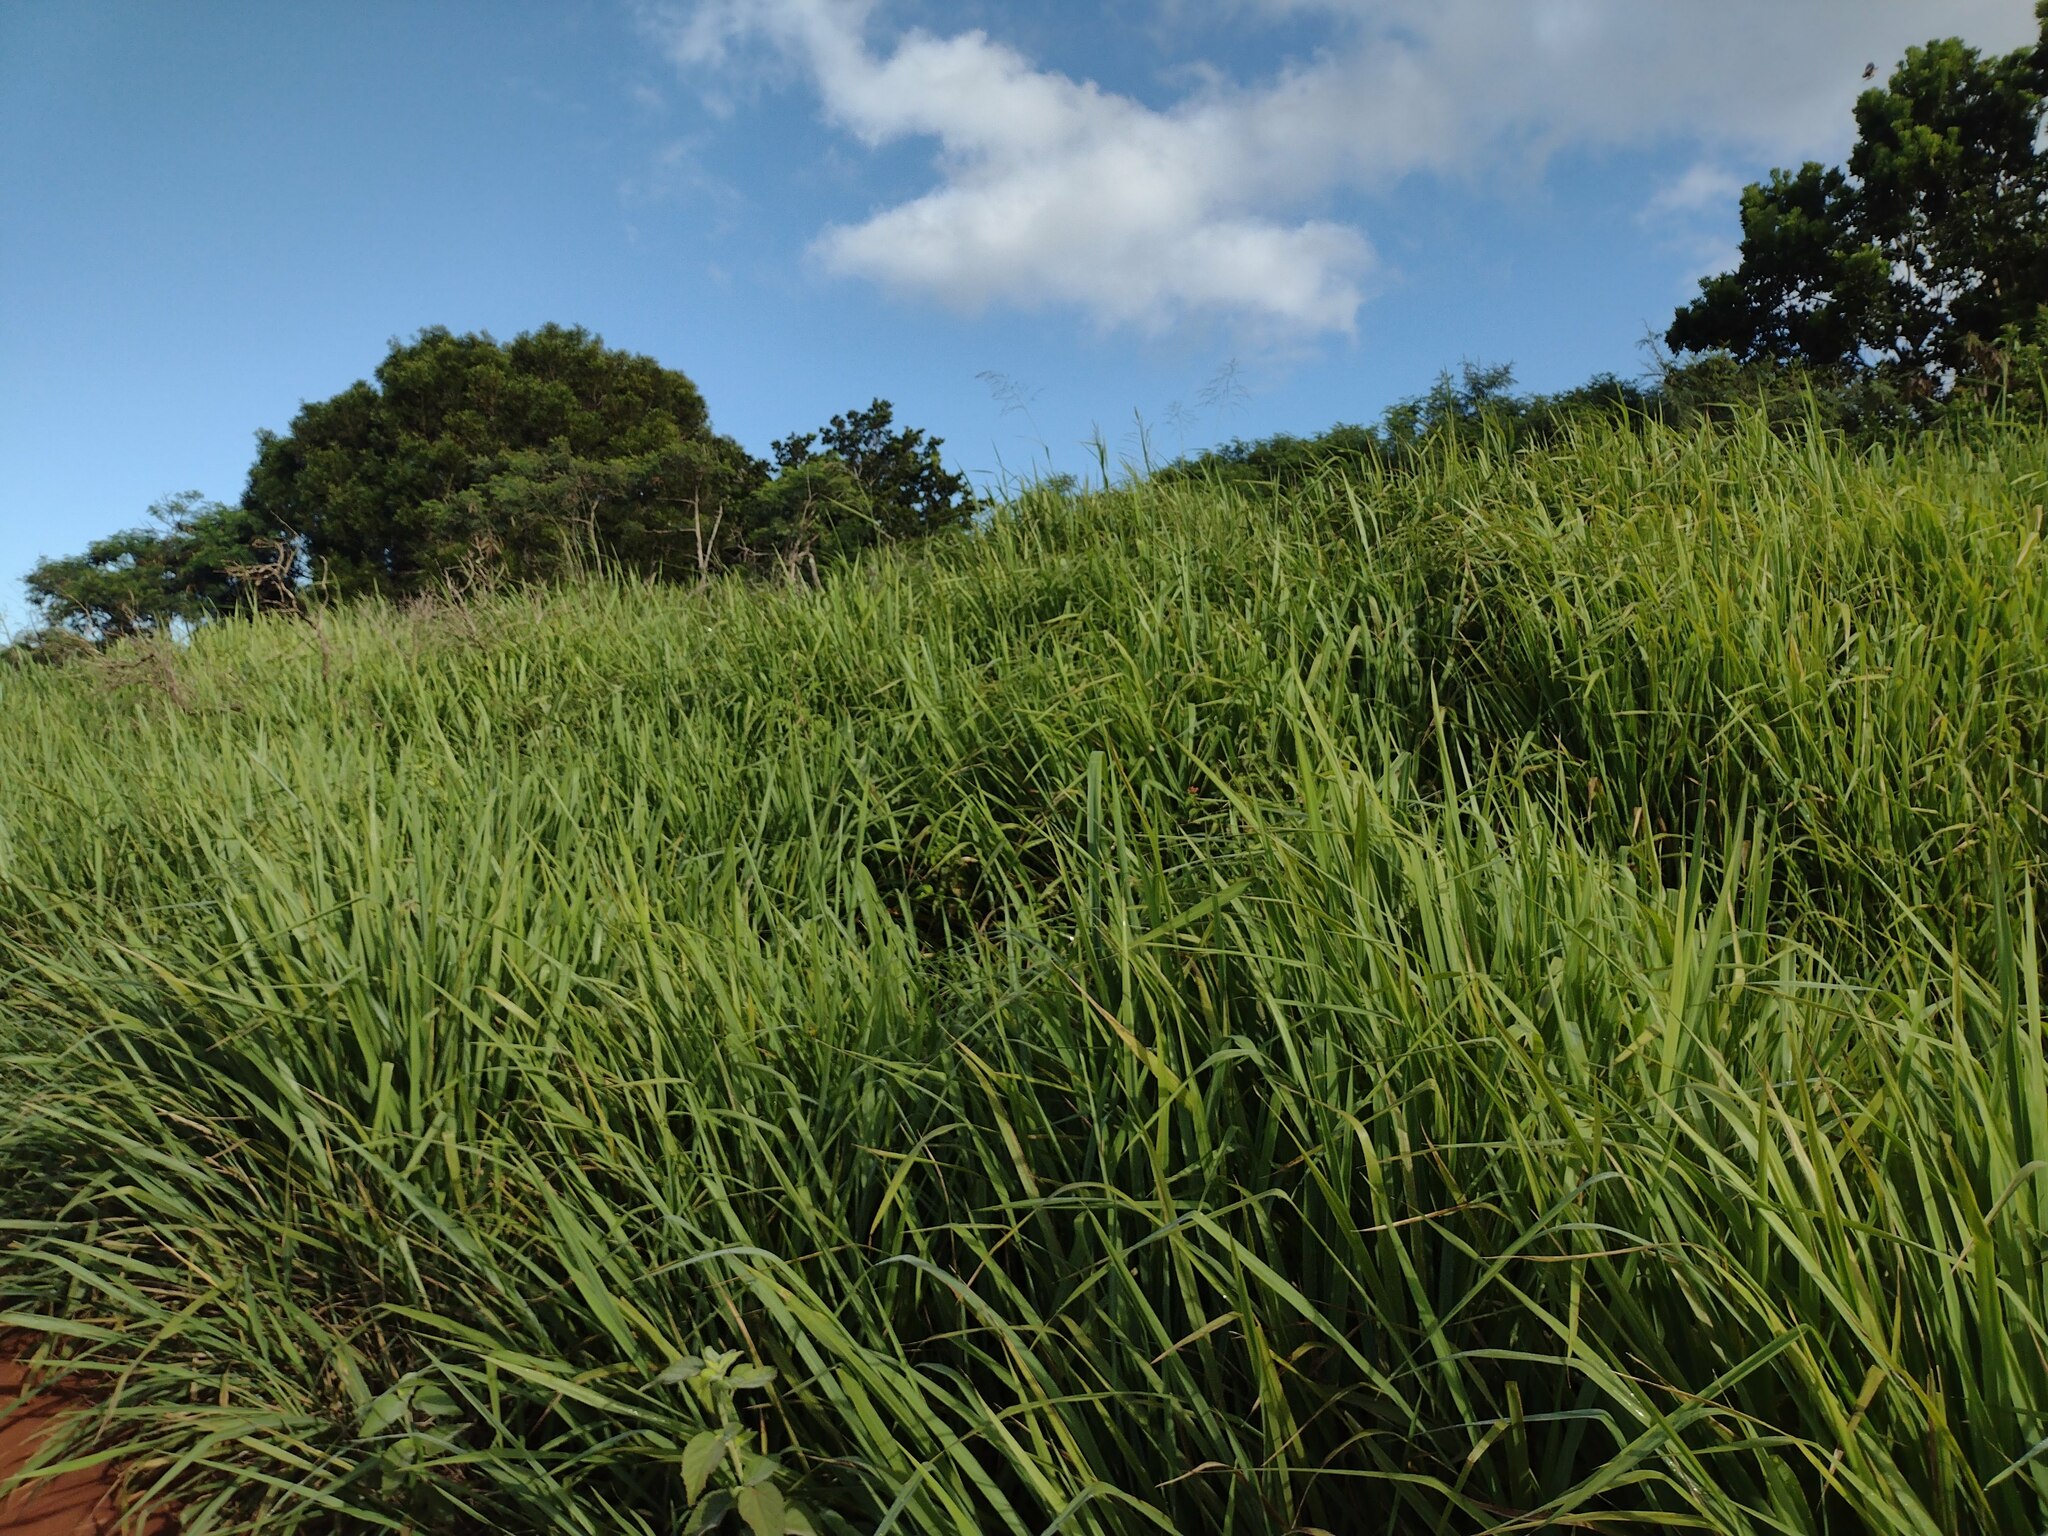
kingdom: Plantae
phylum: Tracheophyta
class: Liliopsida
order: Poales
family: Poaceae
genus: Megathyrsus
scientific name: Megathyrsus maximus
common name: Guineagrass
